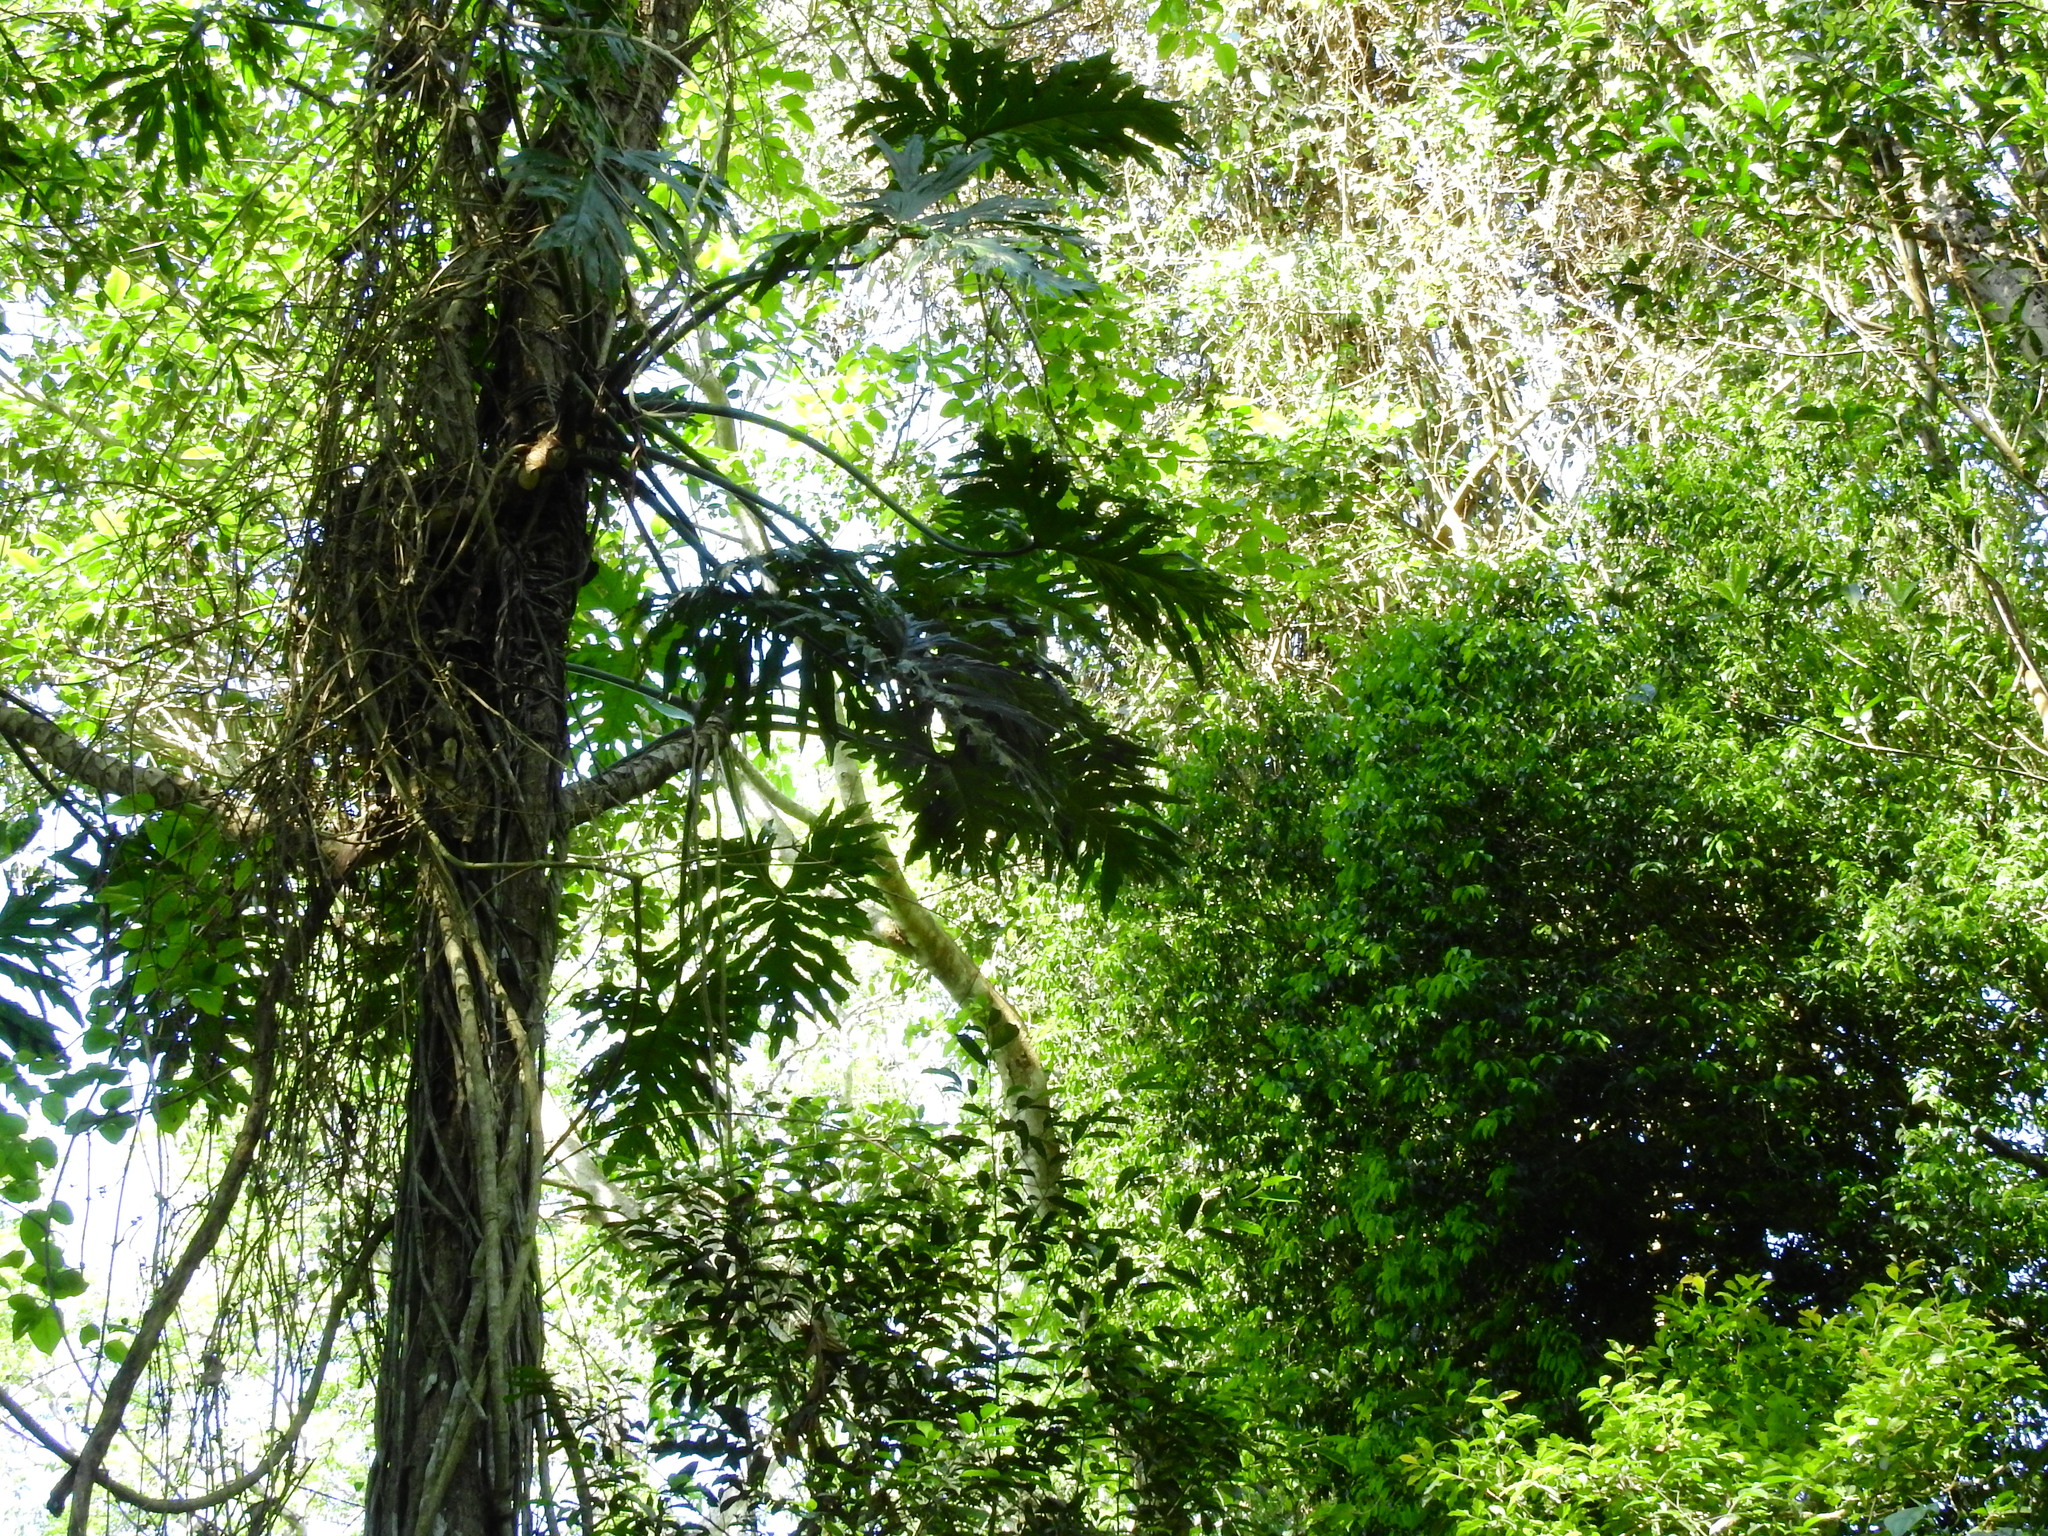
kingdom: Plantae
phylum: Tracheophyta
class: Liliopsida
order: Alismatales
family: Araceae
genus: Thaumatophyllum
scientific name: Thaumatophyllum bipinnatifidum
